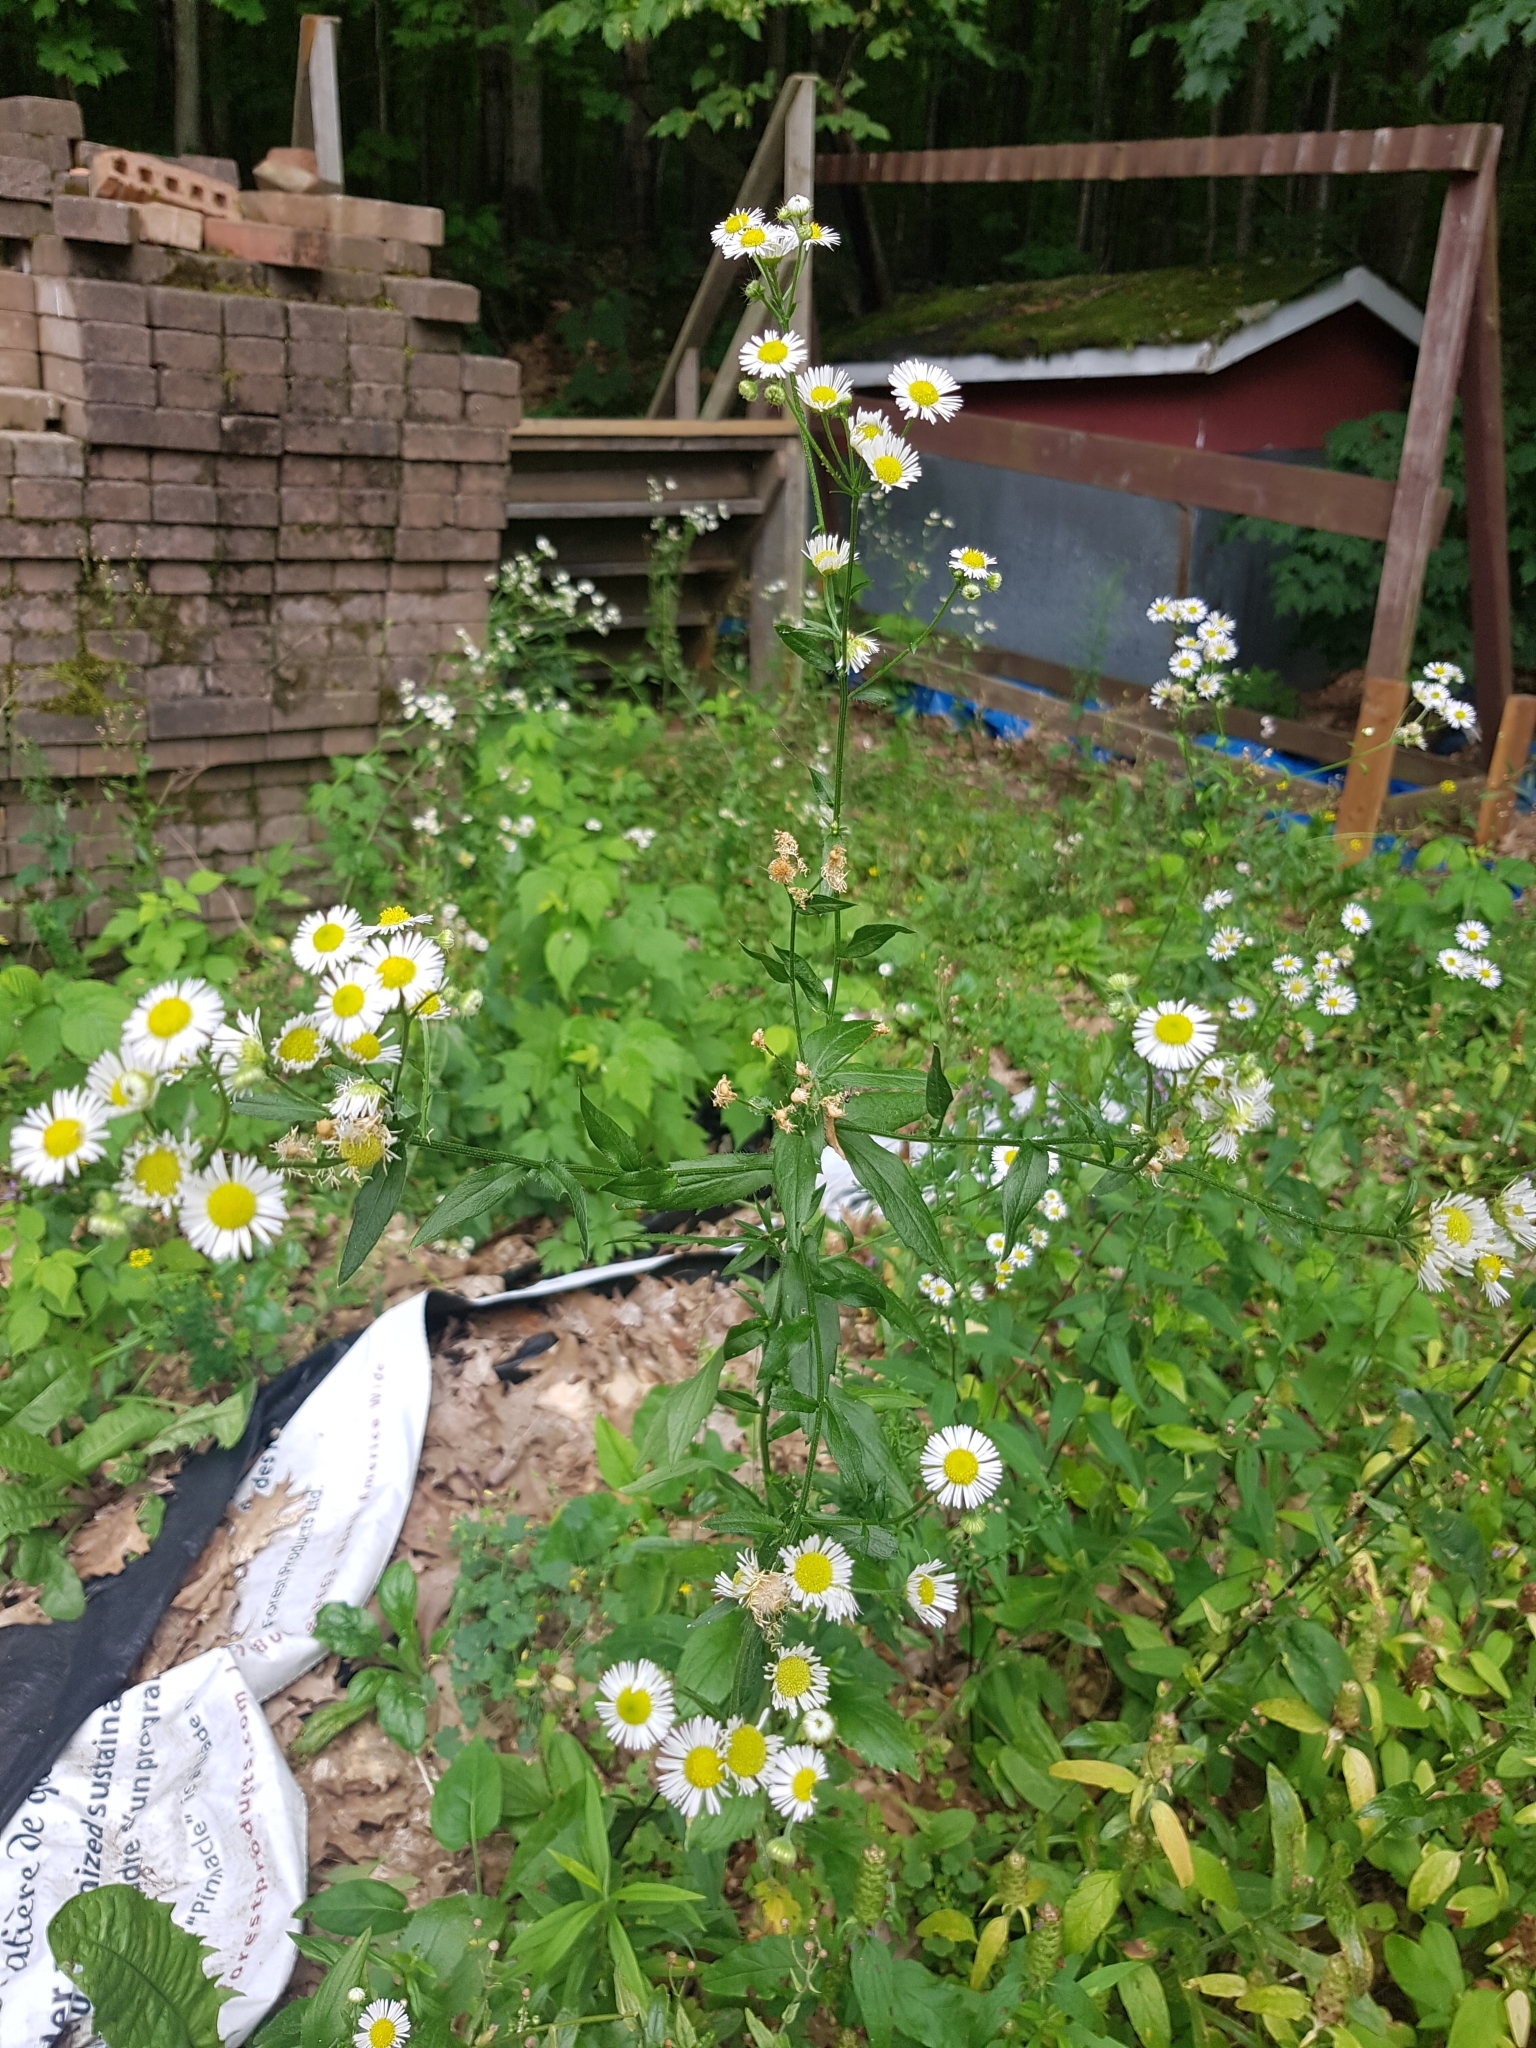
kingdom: Plantae
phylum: Tracheophyta
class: Magnoliopsida
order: Asterales
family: Asteraceae
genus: Erigeron
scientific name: Erigeron strigosus
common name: Common eastern fleabane
